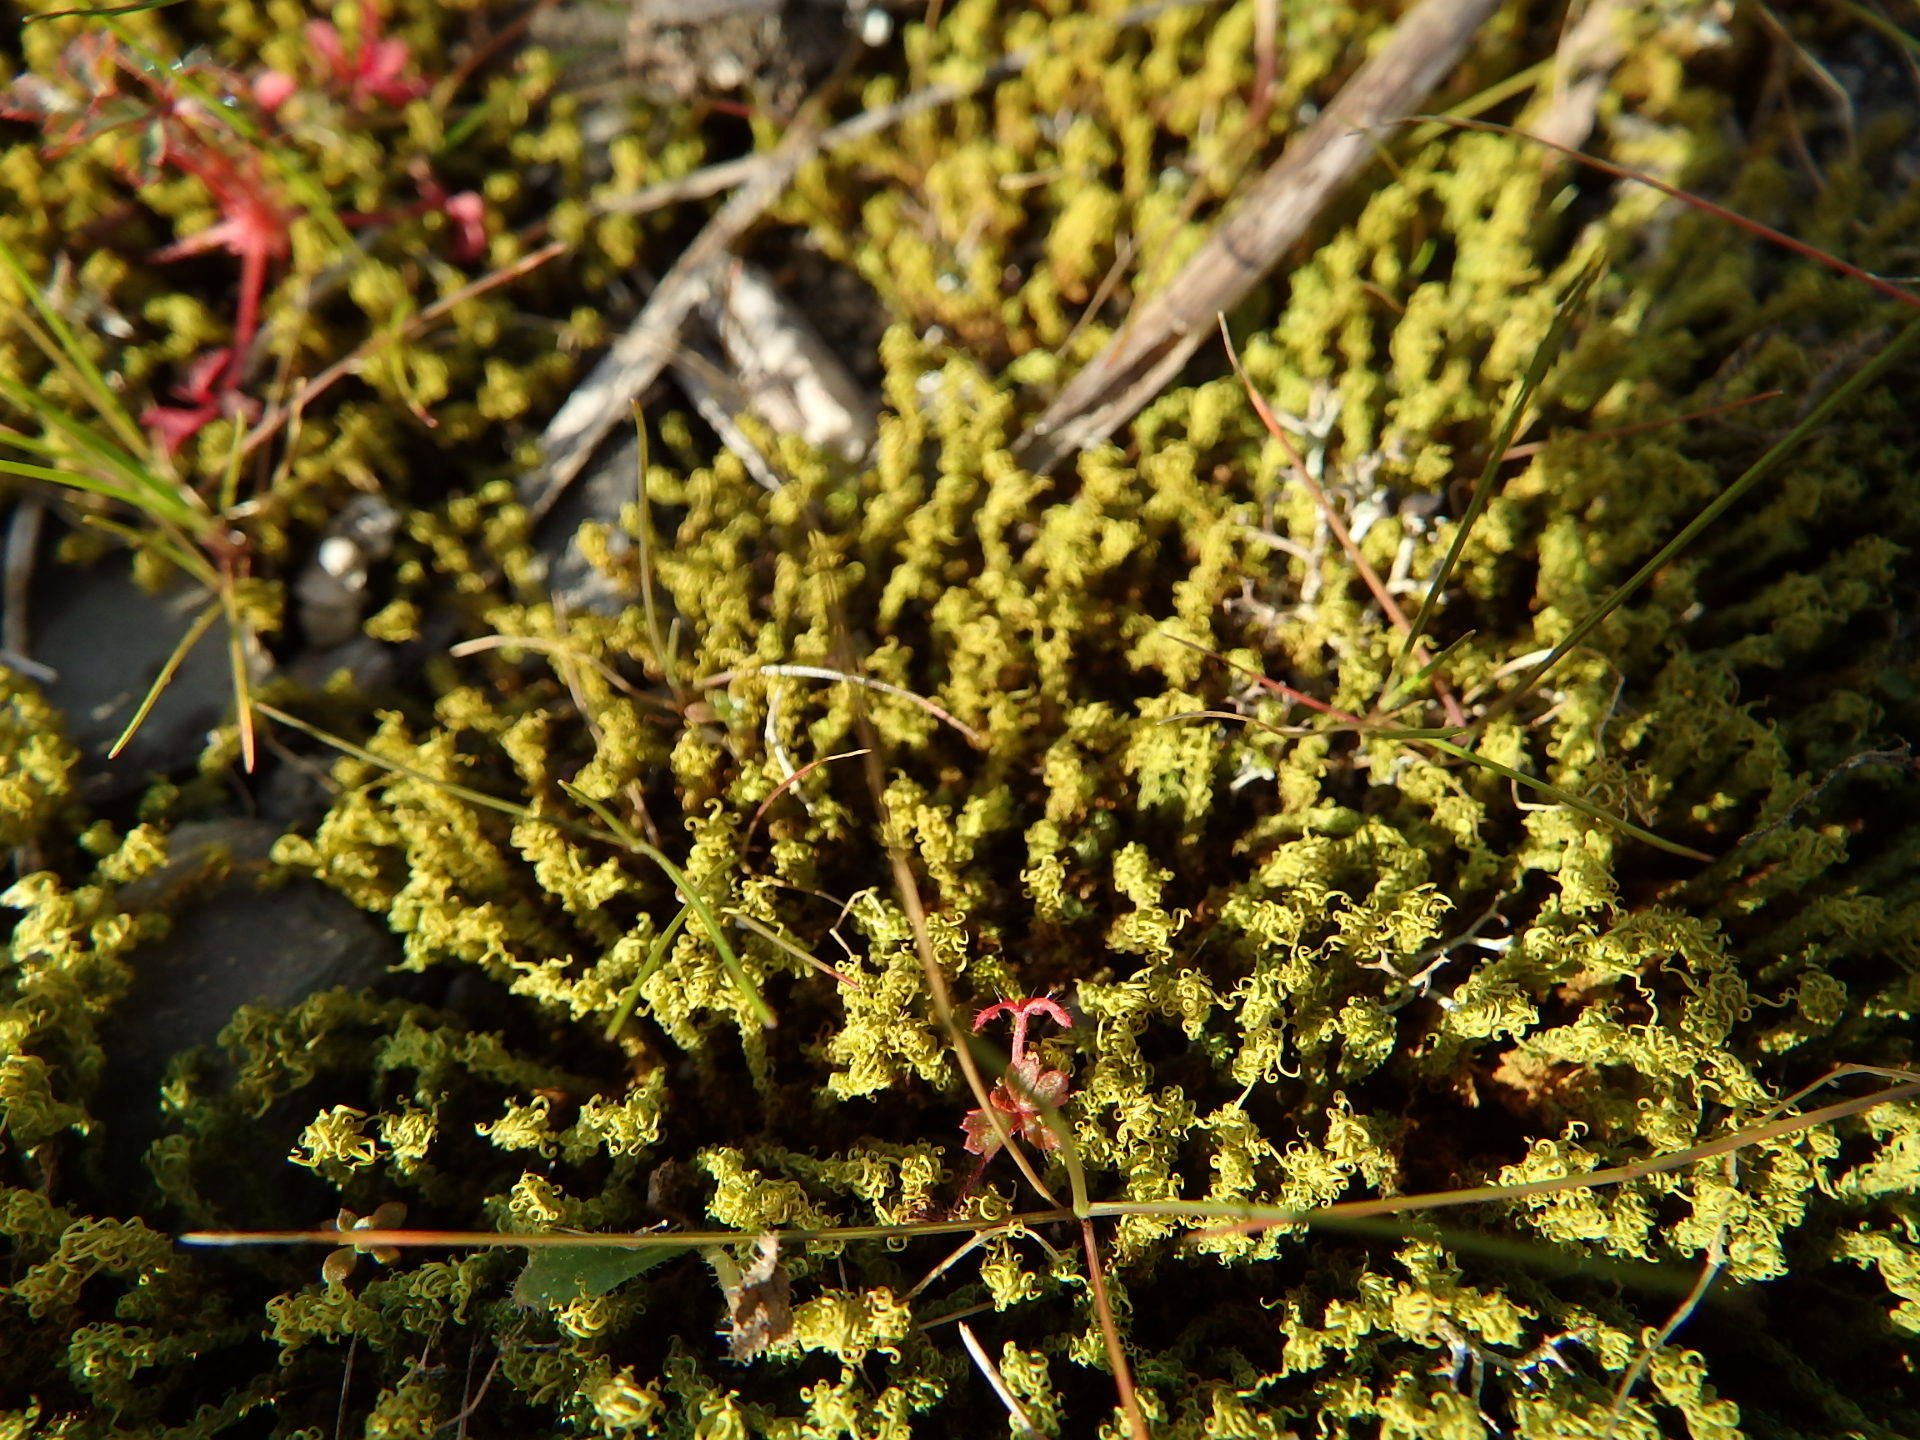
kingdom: Plantae
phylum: Bryophyta
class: Bryopsida
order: Pottiales
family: Pottiaceae
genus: Pleurochaete
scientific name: Pleurochaete squarrosa
